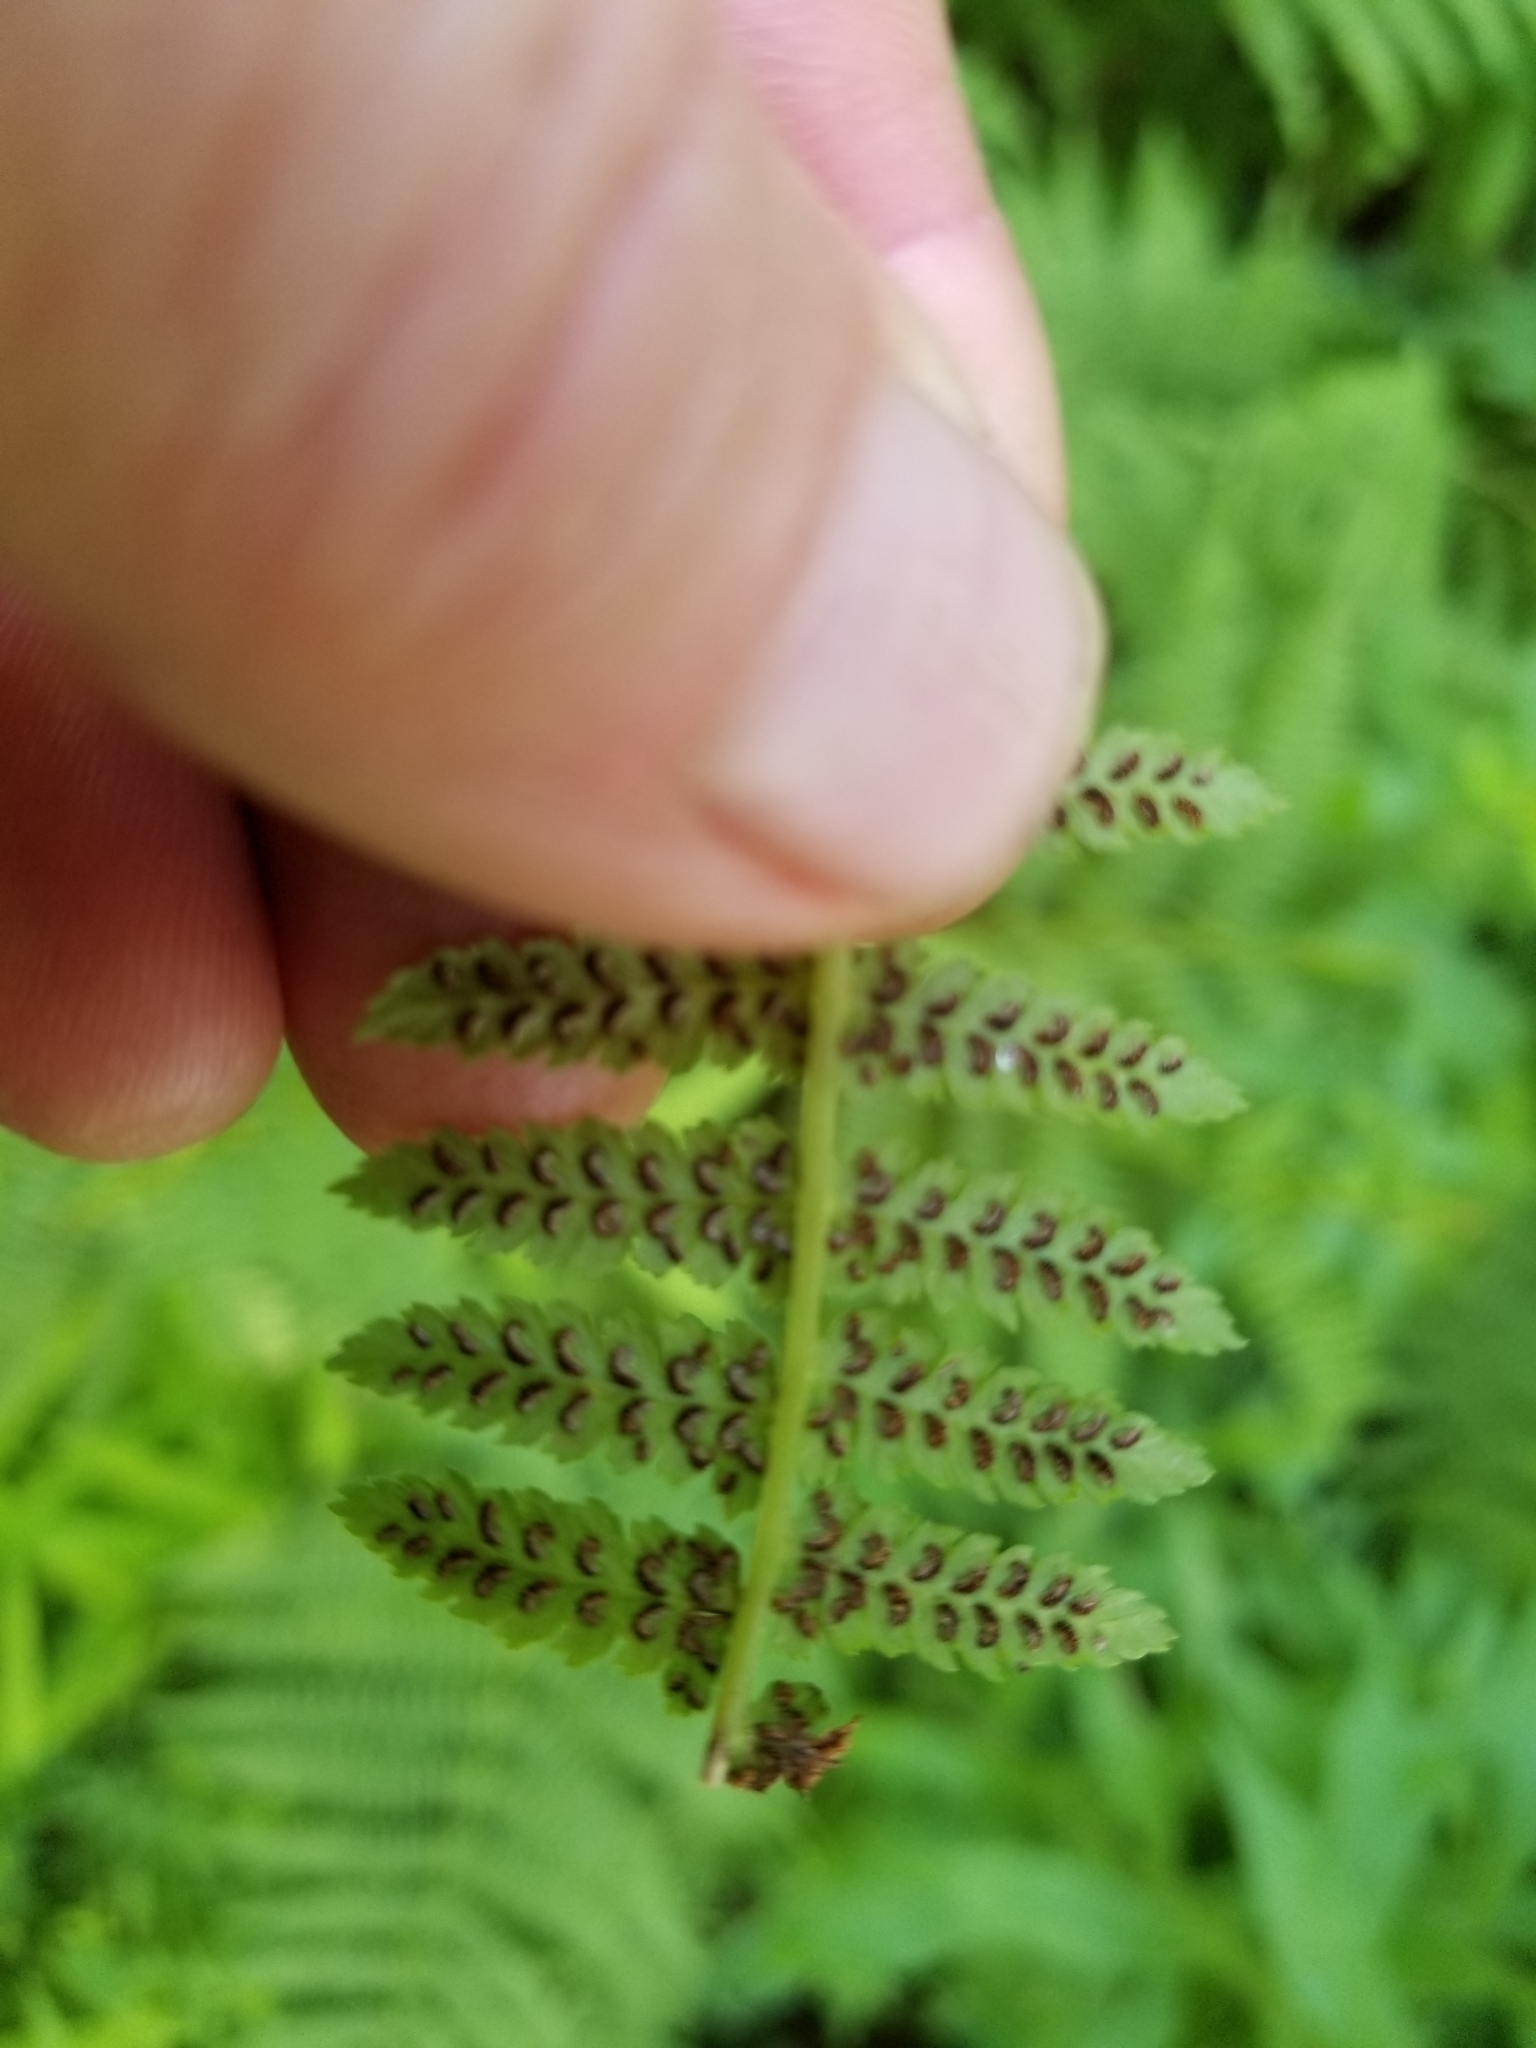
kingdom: Plantae
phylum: Tracheophyta
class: Polypodiopsida
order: Polypodiales
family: Athyriaceae
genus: Athyrium
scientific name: Athyrium angustum
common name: Northern lady fern
